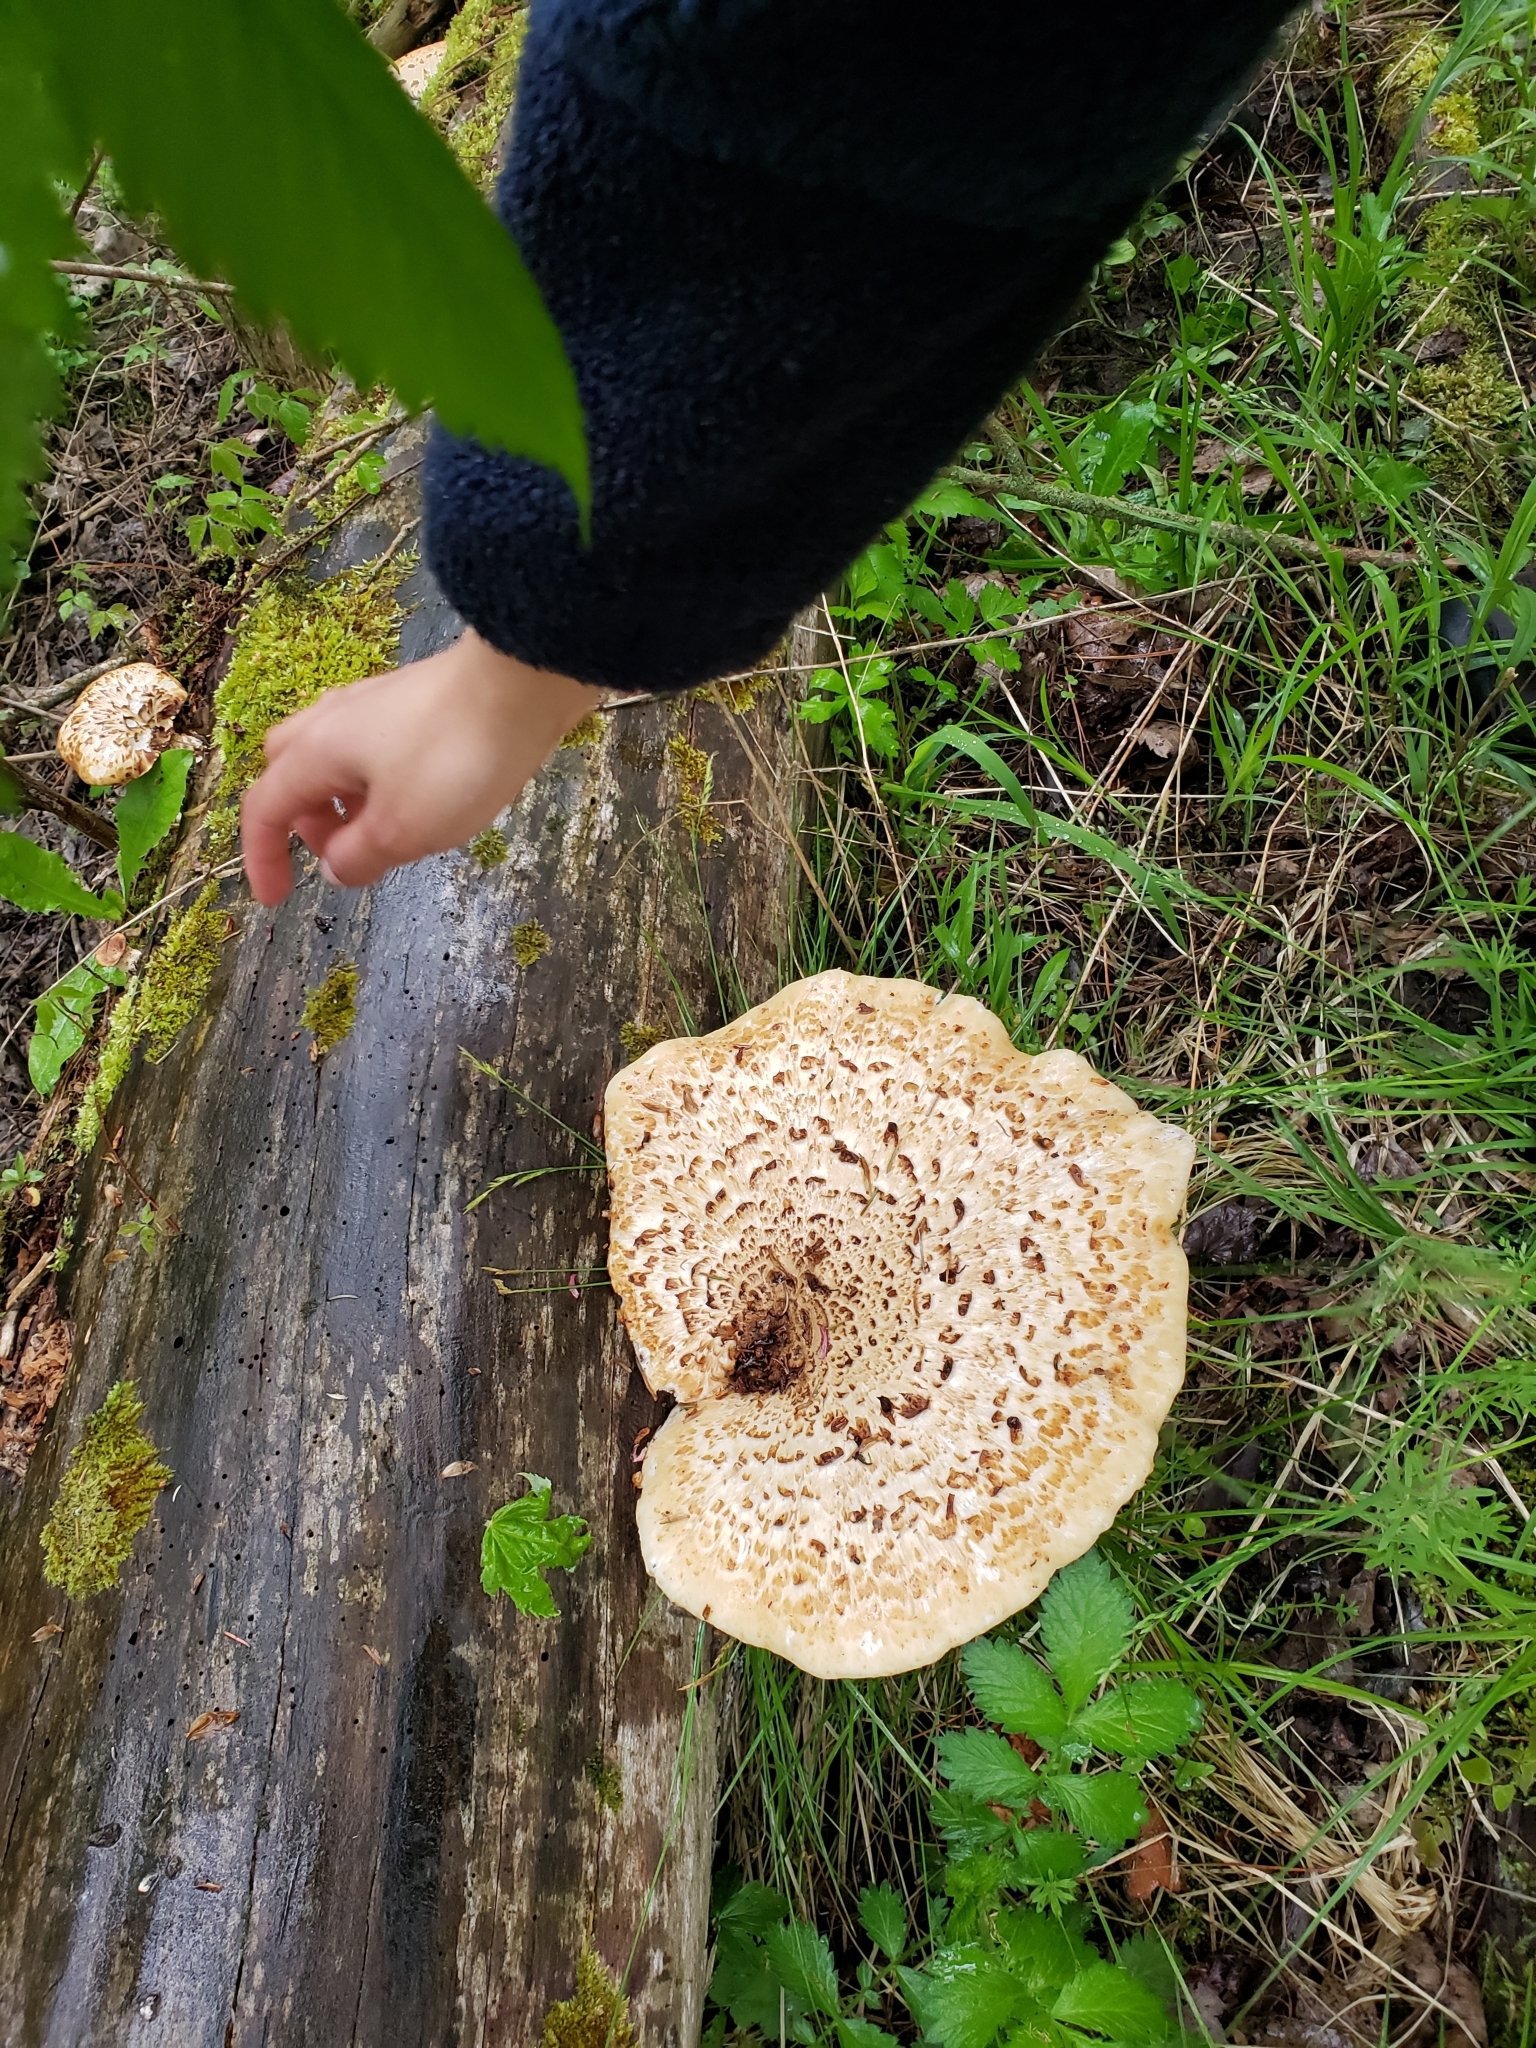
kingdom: Fungi
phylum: Basidiomycota
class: Agaricomycetes
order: Polyporales
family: Polyporaceae
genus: Cerioporus
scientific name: Cerioporus squamosus
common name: Dryad's saddle
